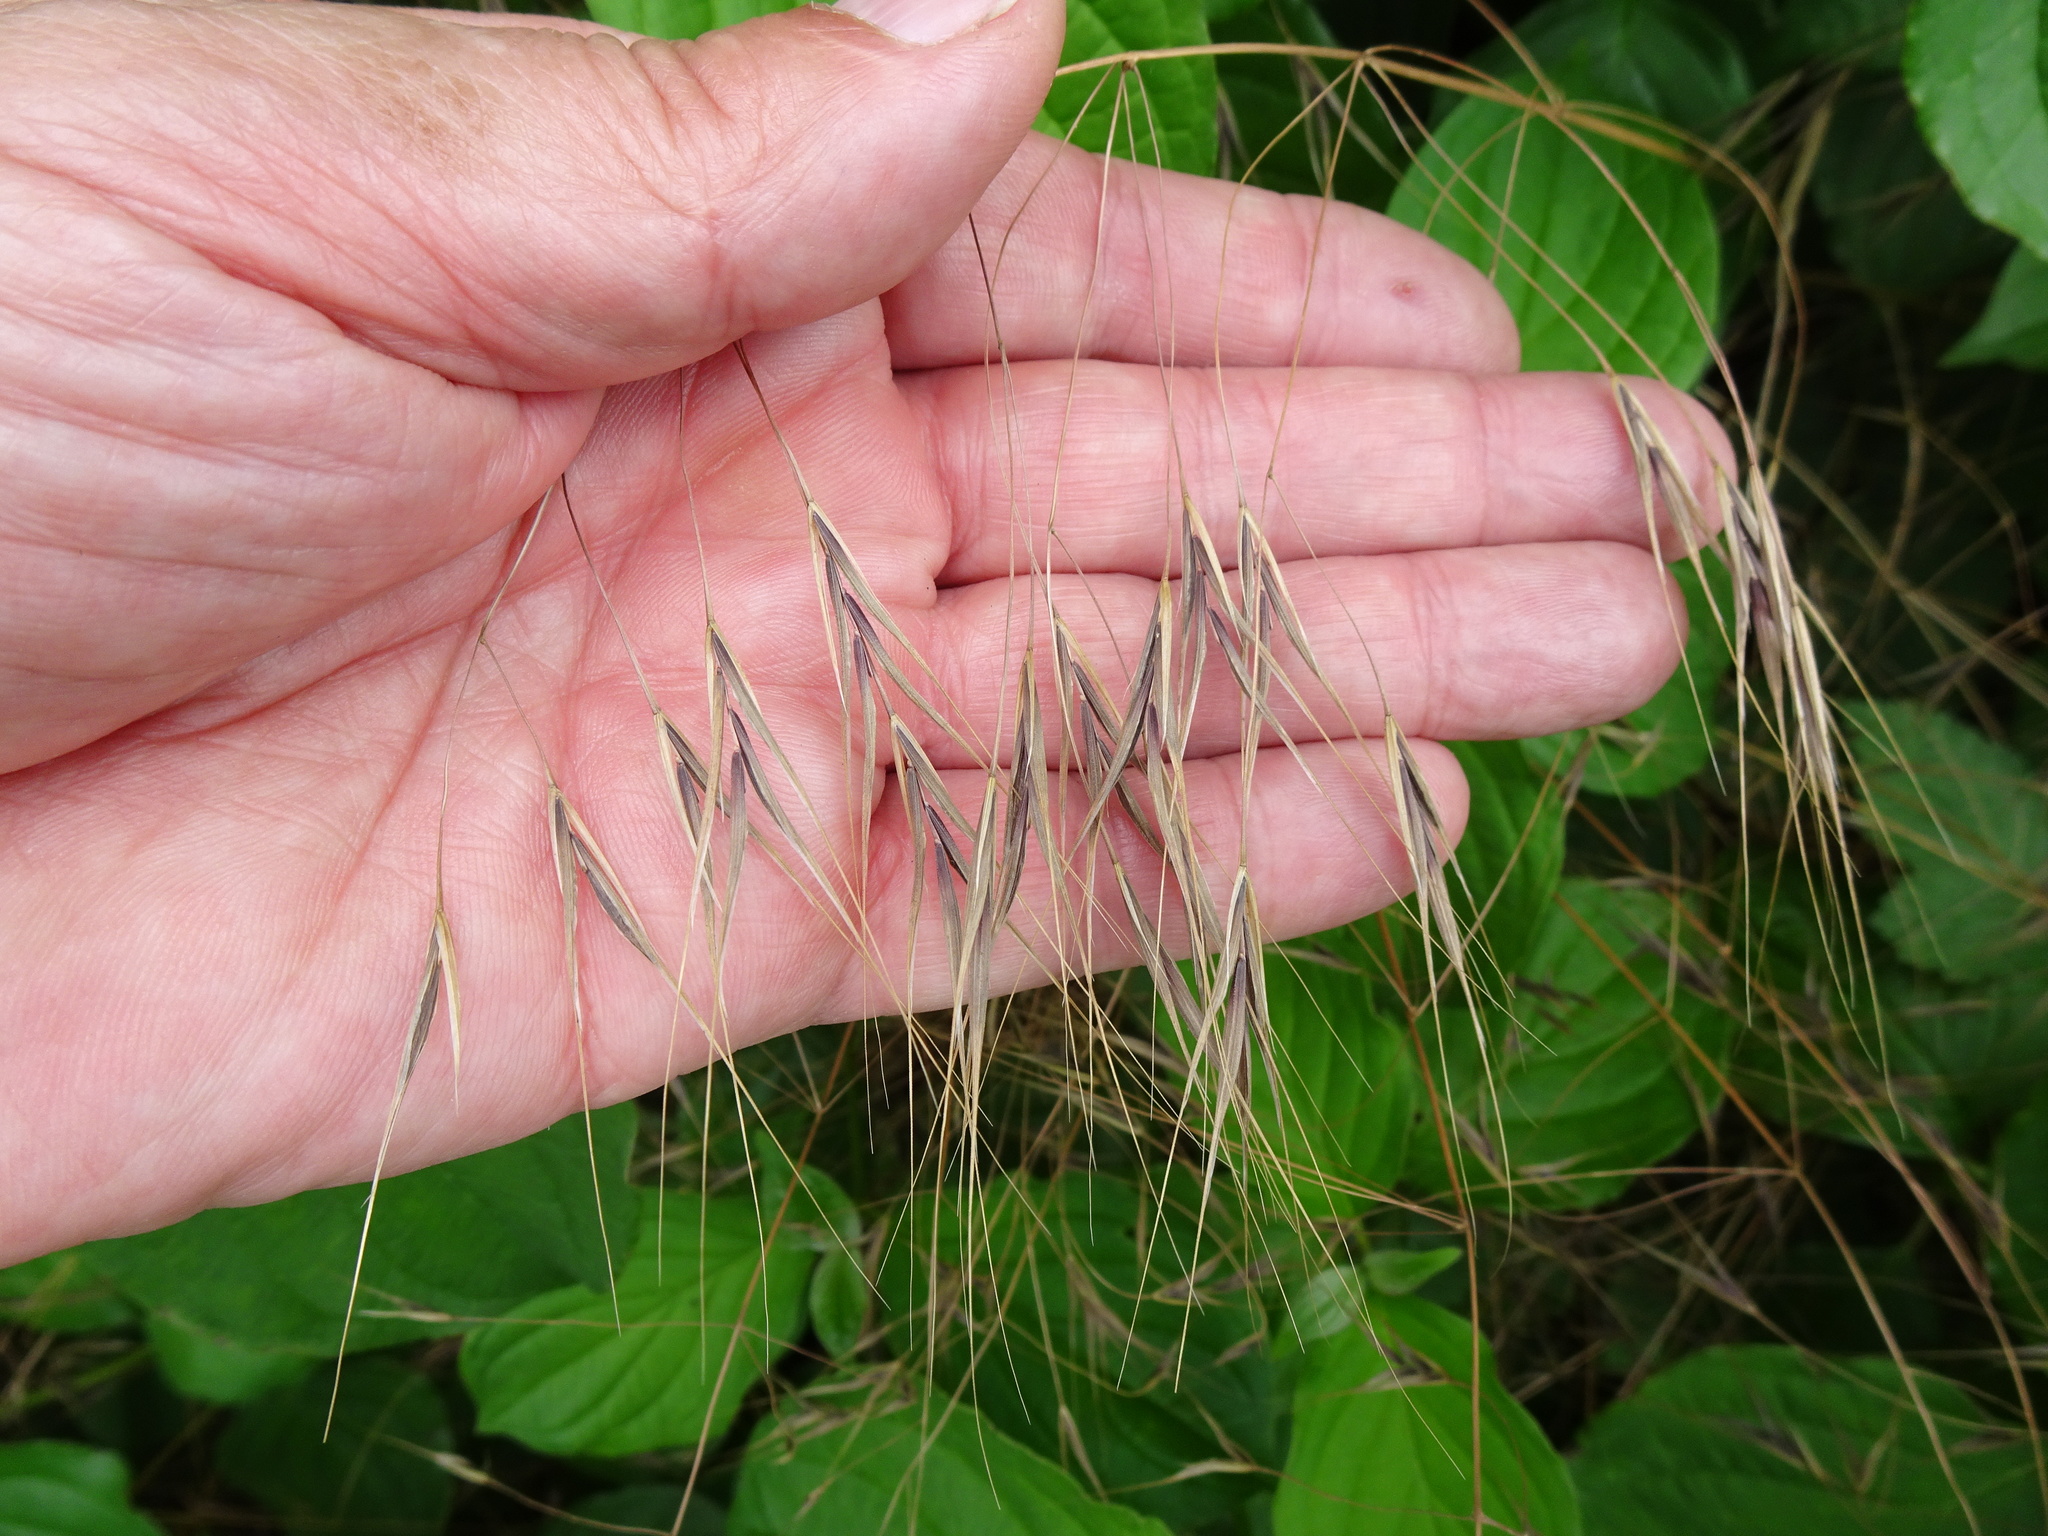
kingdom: Plantae
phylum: Tracheophyta
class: Liliopsida
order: Poales
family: Poaceae
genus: Bromus
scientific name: Bromus sterilis
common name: Poverty brome
